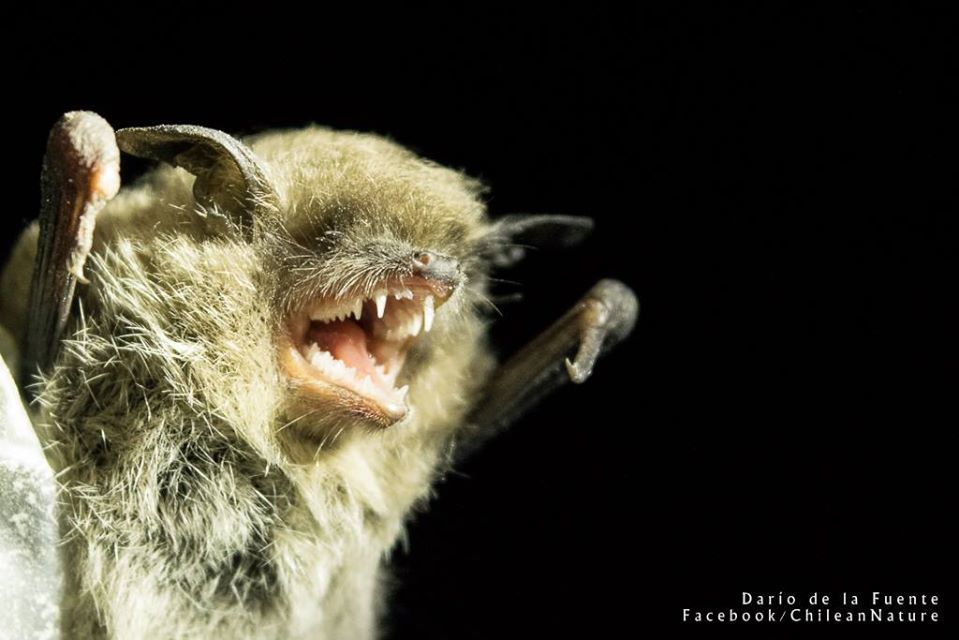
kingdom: Animalia
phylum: Chordata
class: Mammalia
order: Chiroptera
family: Vespertilionidae
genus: Myotis
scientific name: Myotis chiloensis
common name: Chilean myotis
